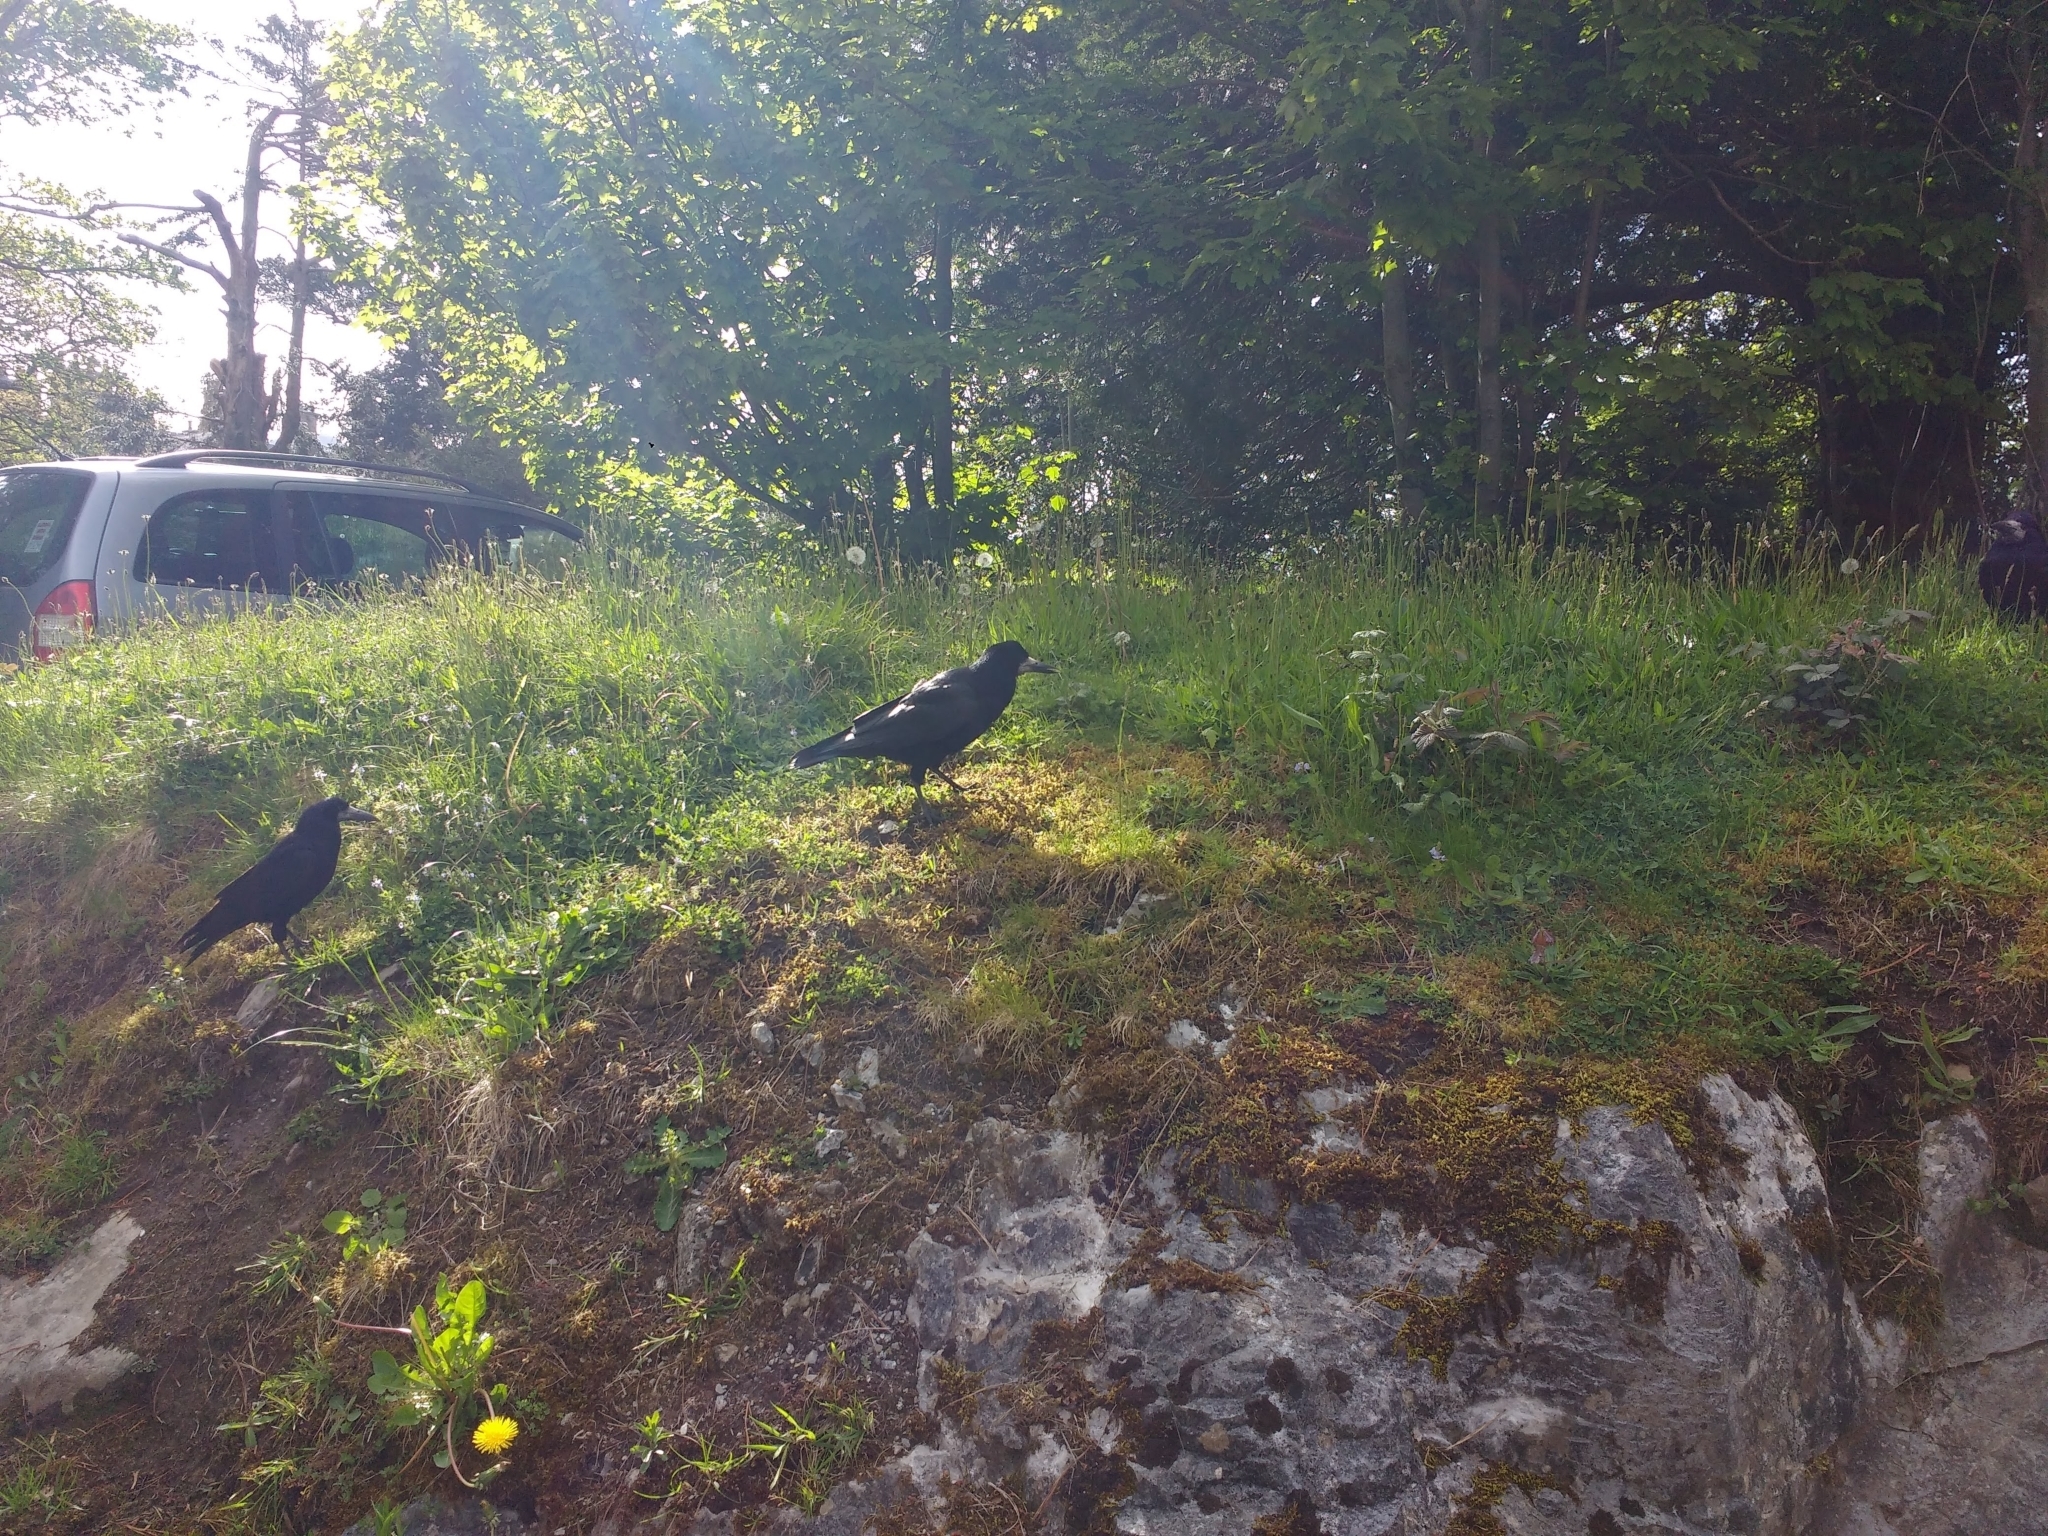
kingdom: Animalia
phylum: Chordata
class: Aves
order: Passeriformes
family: Corvidae
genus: Corvus
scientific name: Corvus frugilegus
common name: Rook
